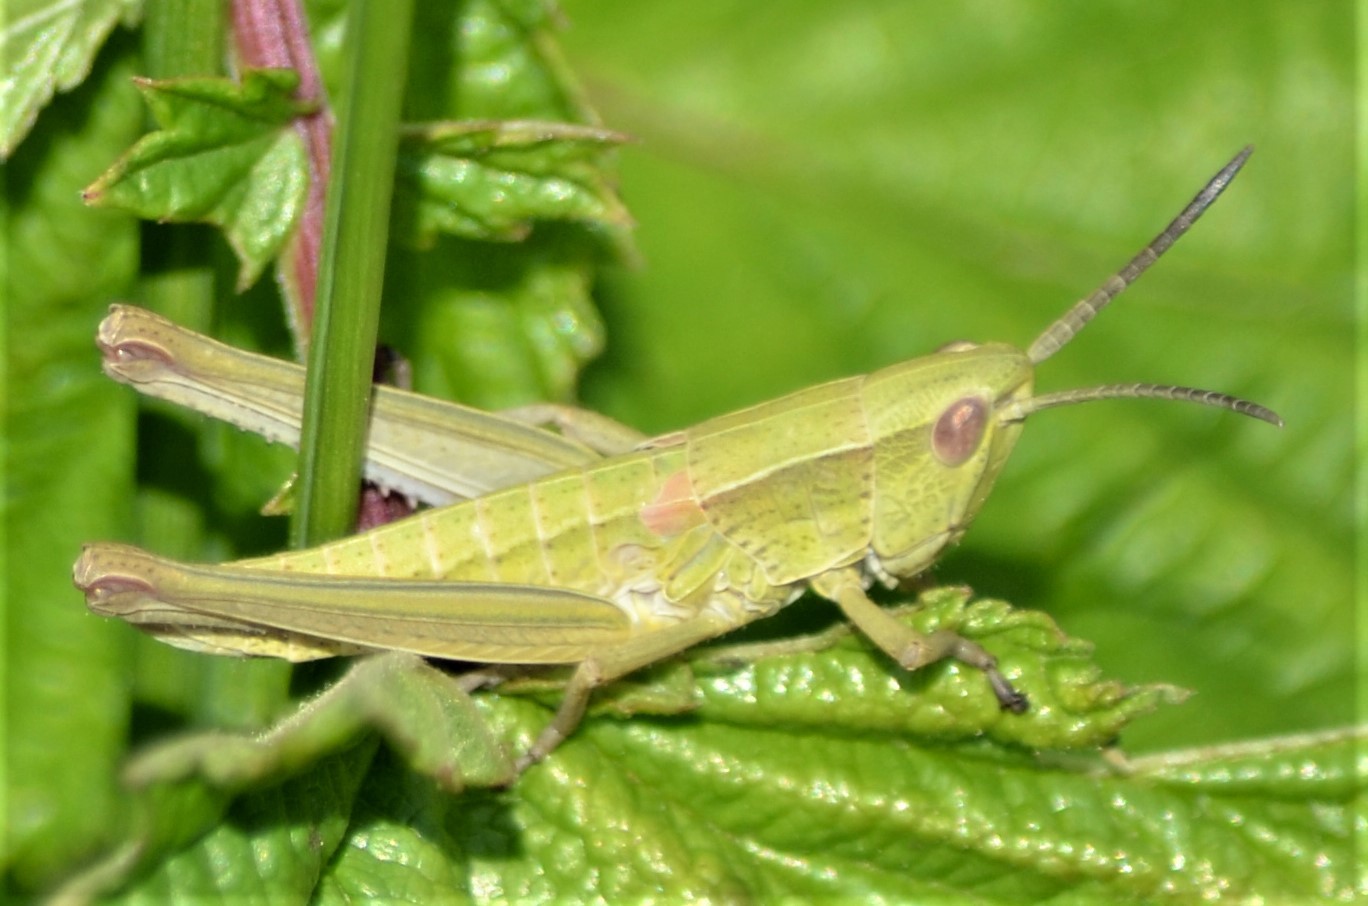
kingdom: Animalia
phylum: Arthropoda
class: Insecta
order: Orthoptera
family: Acrididae
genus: Euthystira
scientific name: Euthystira brachyptera
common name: Small gold grasshopper
